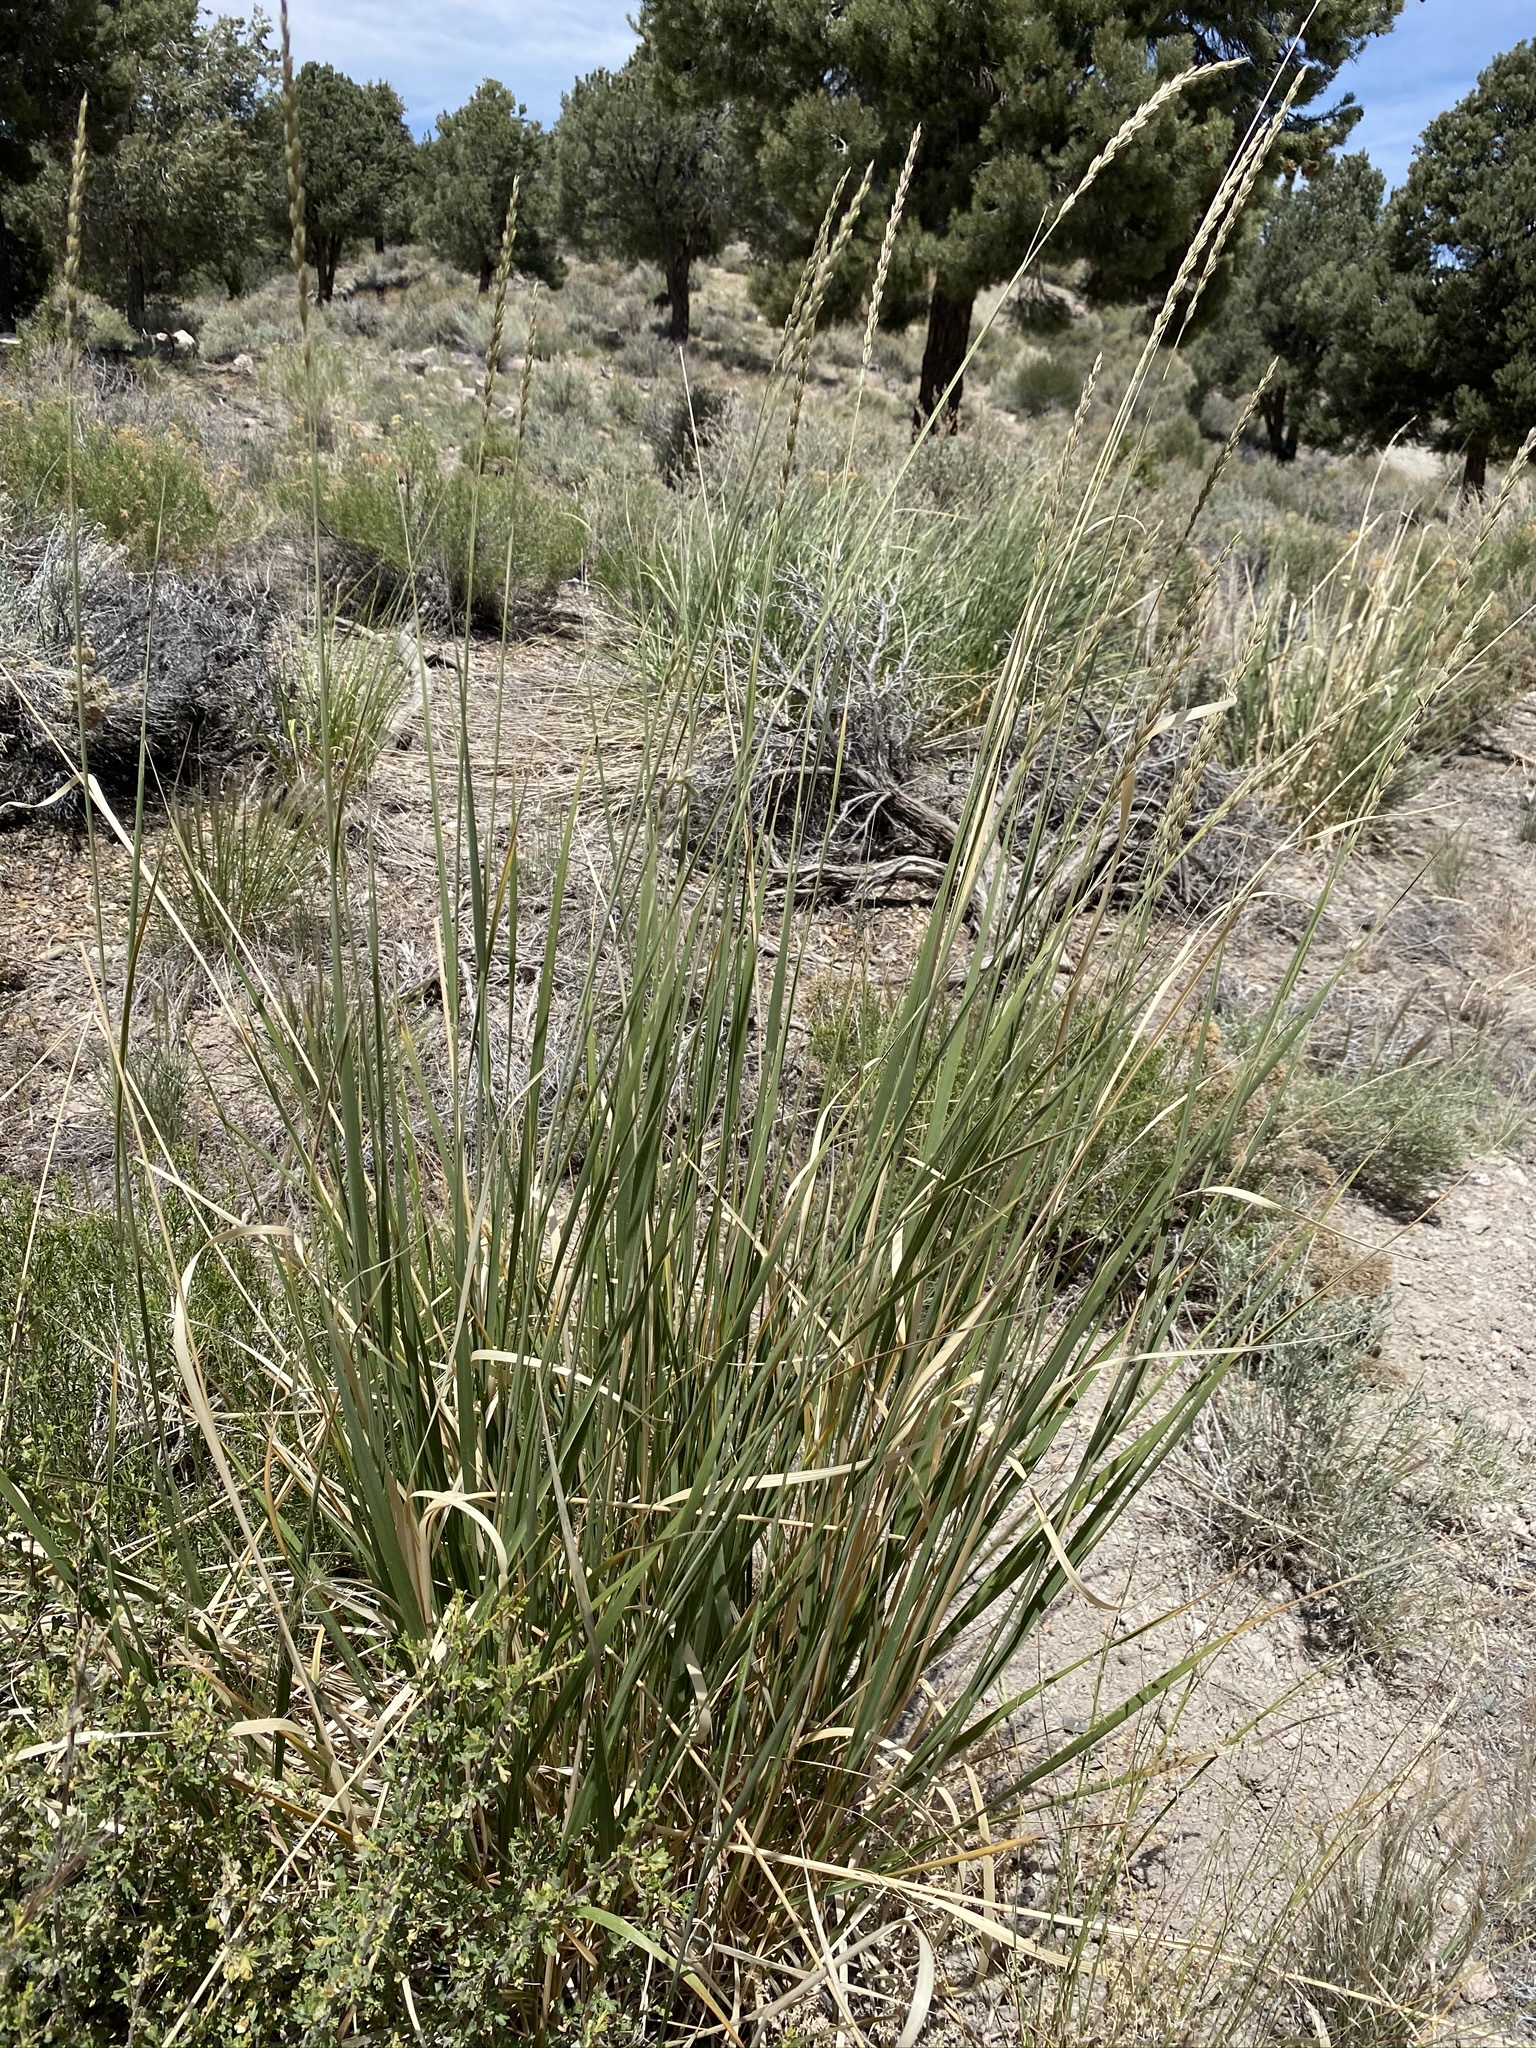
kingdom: Plantae
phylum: Tracheophyta
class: Liliopsida
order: Poales
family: Poaceae
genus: Leymus
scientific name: Leymus cinereus
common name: Basin wild rye
